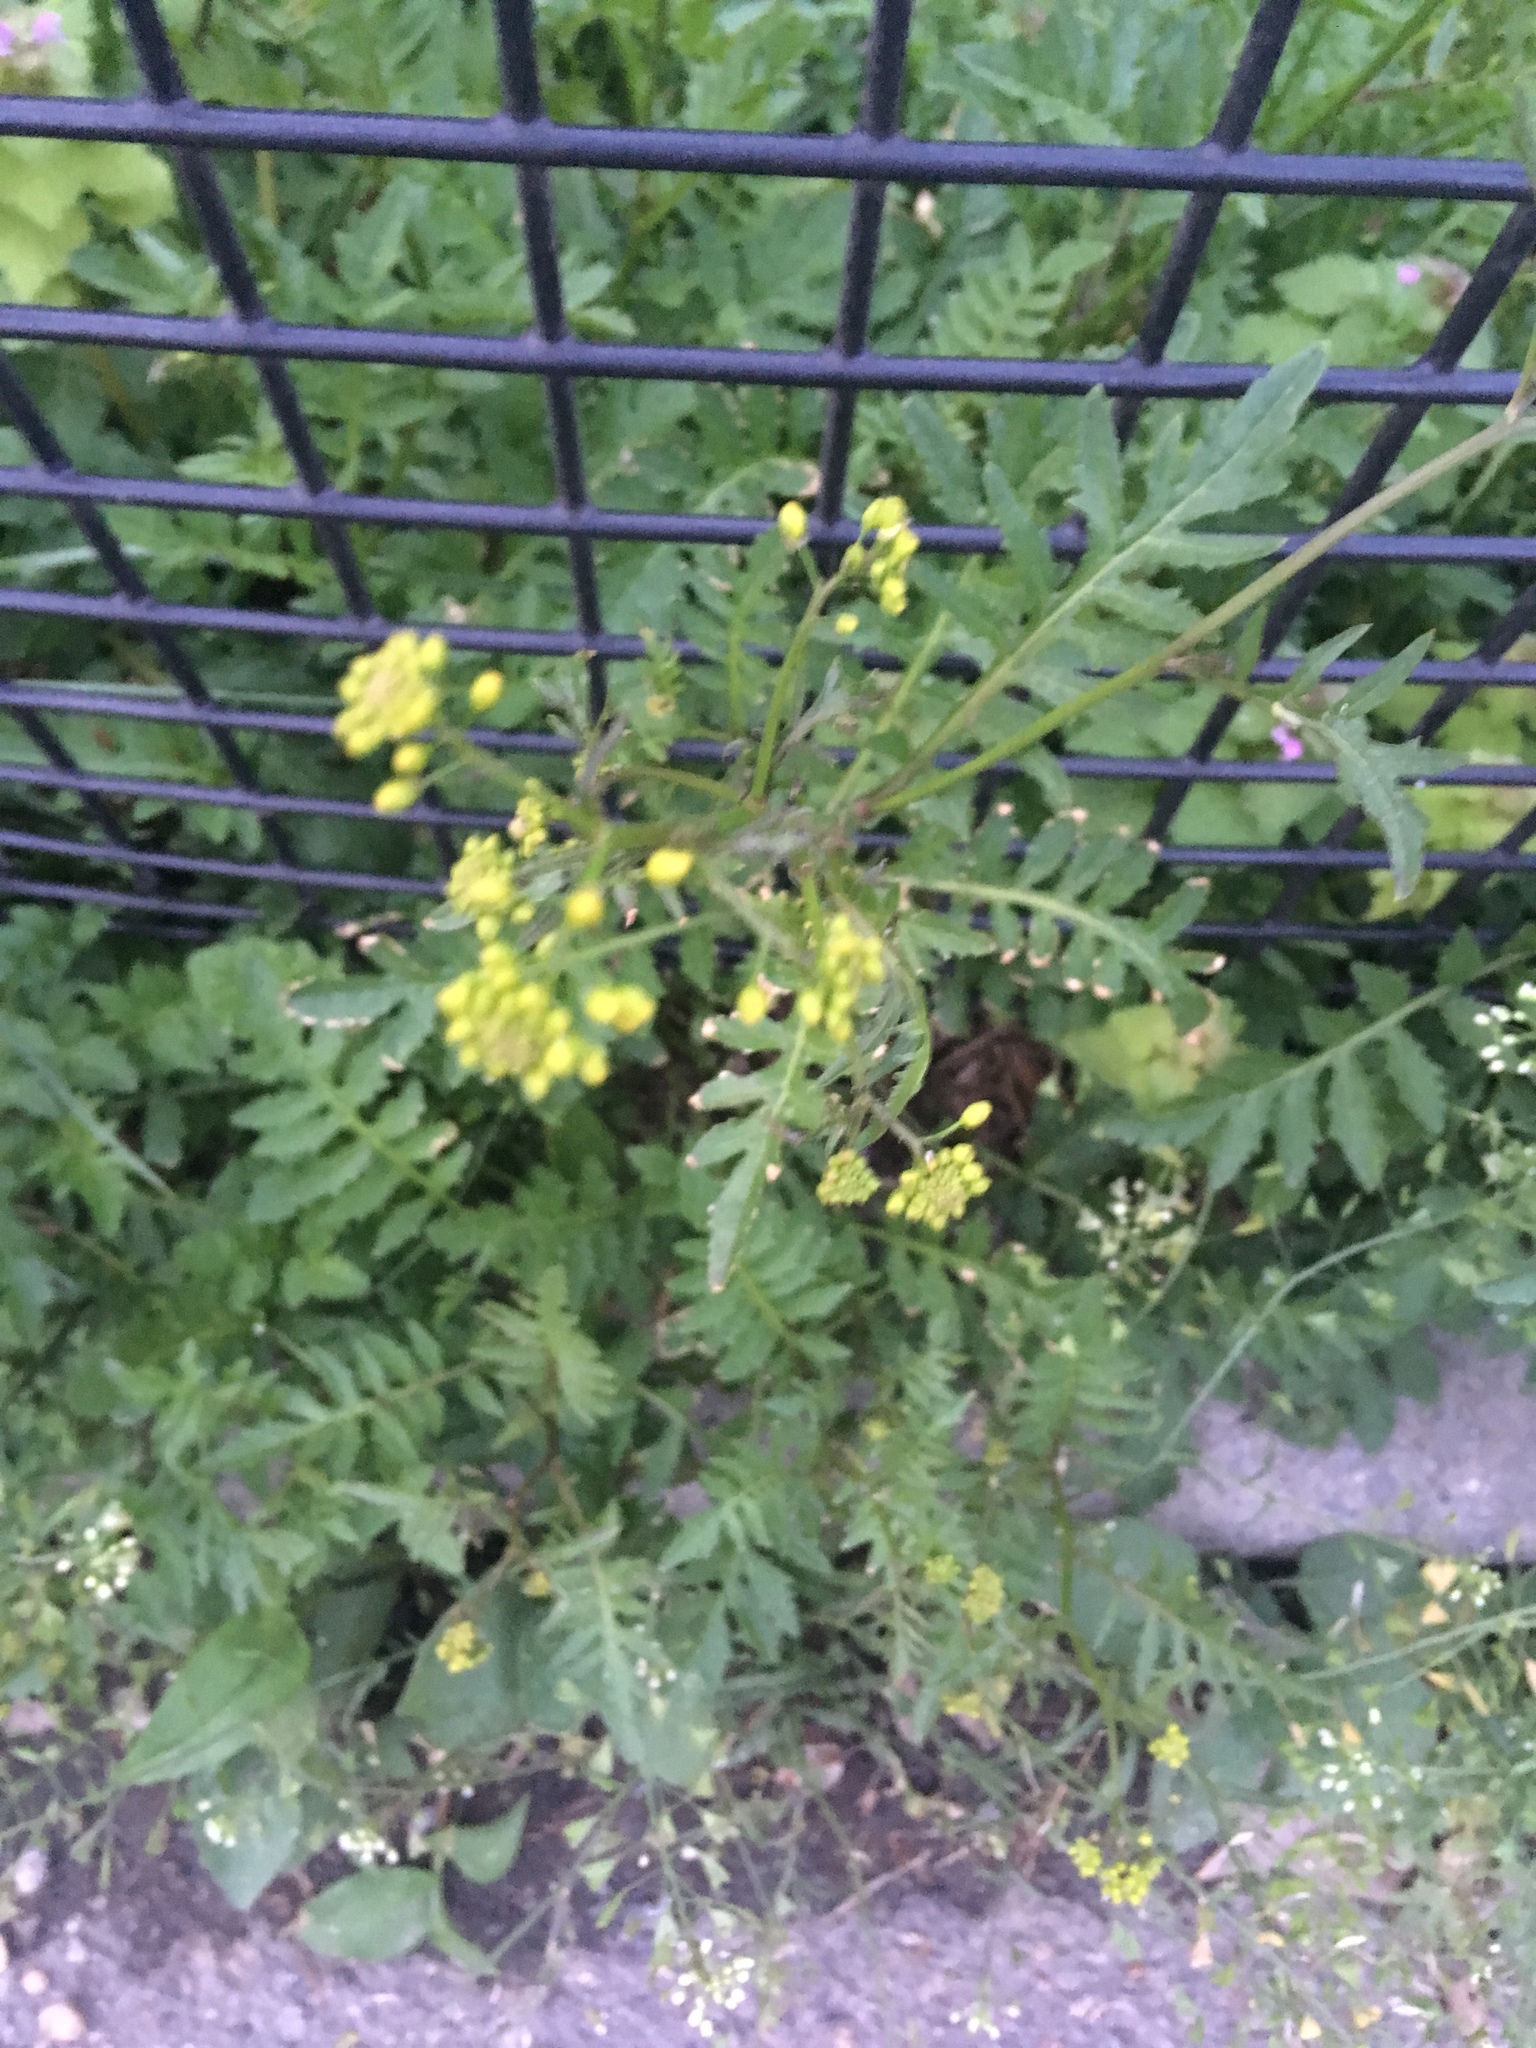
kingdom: Plantae
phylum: Tracheophyta
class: Magnoliopsida
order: Brassicales
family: Brassicaceae
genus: Rorippa
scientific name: Rorippa sylvestris
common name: Creeping yellowcress
